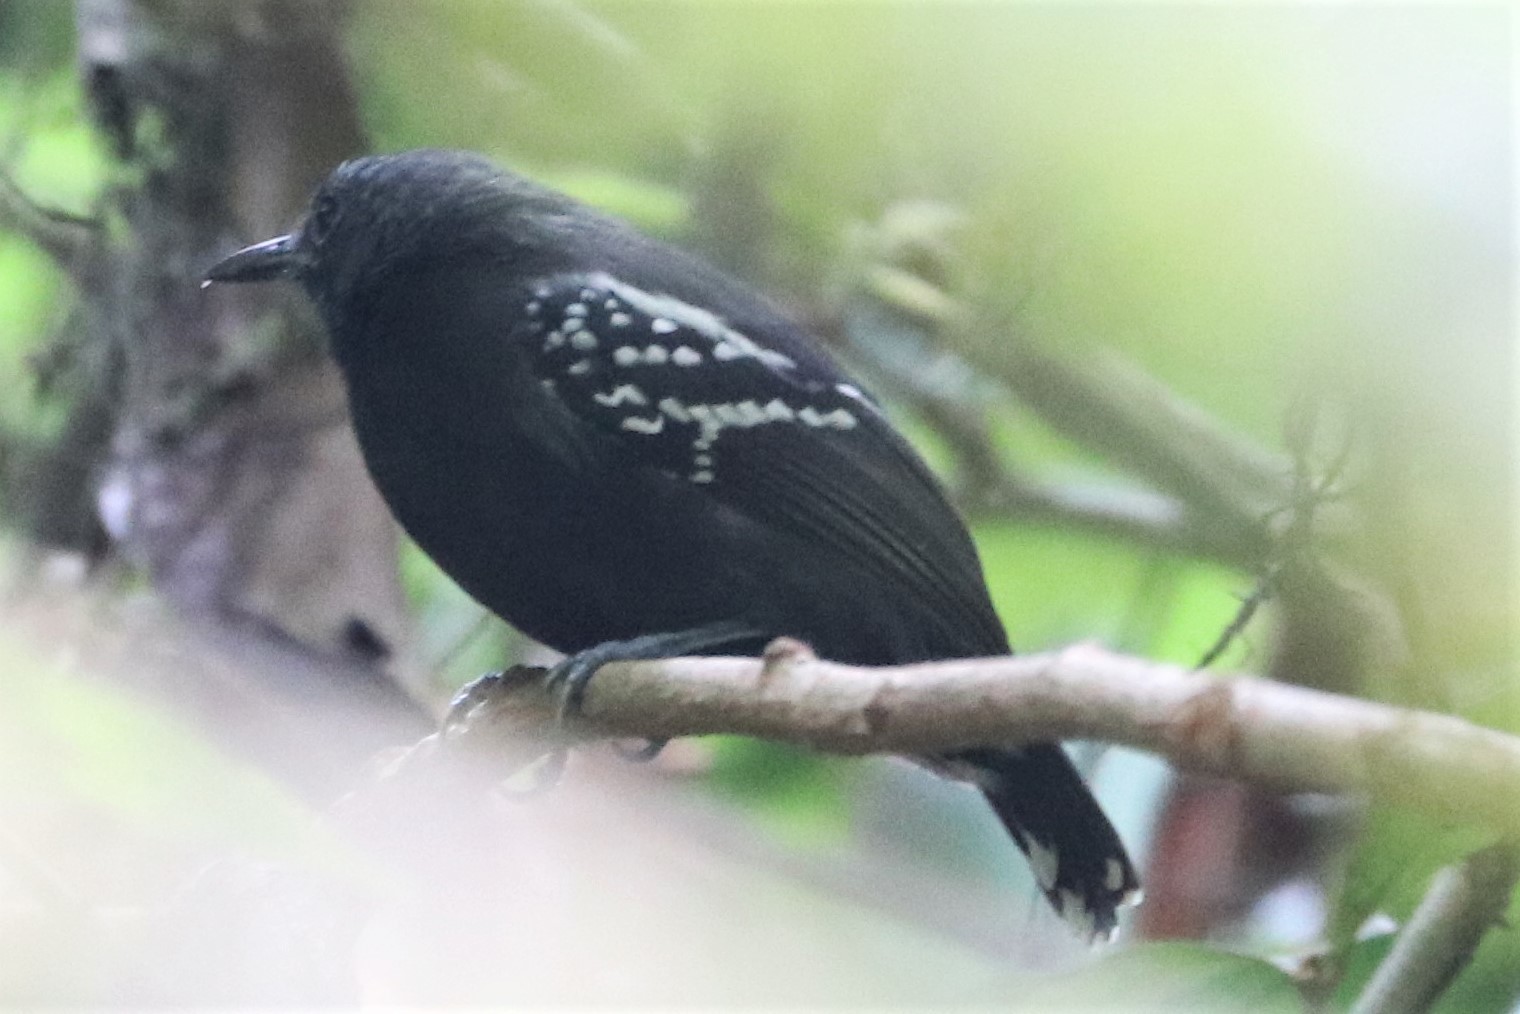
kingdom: Animalia
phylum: Chordata
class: Aves
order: Passeriformes
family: Thamnophilidae
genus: Myrmotherula
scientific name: Myrmotherula axillaris
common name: White-flanked antwren
